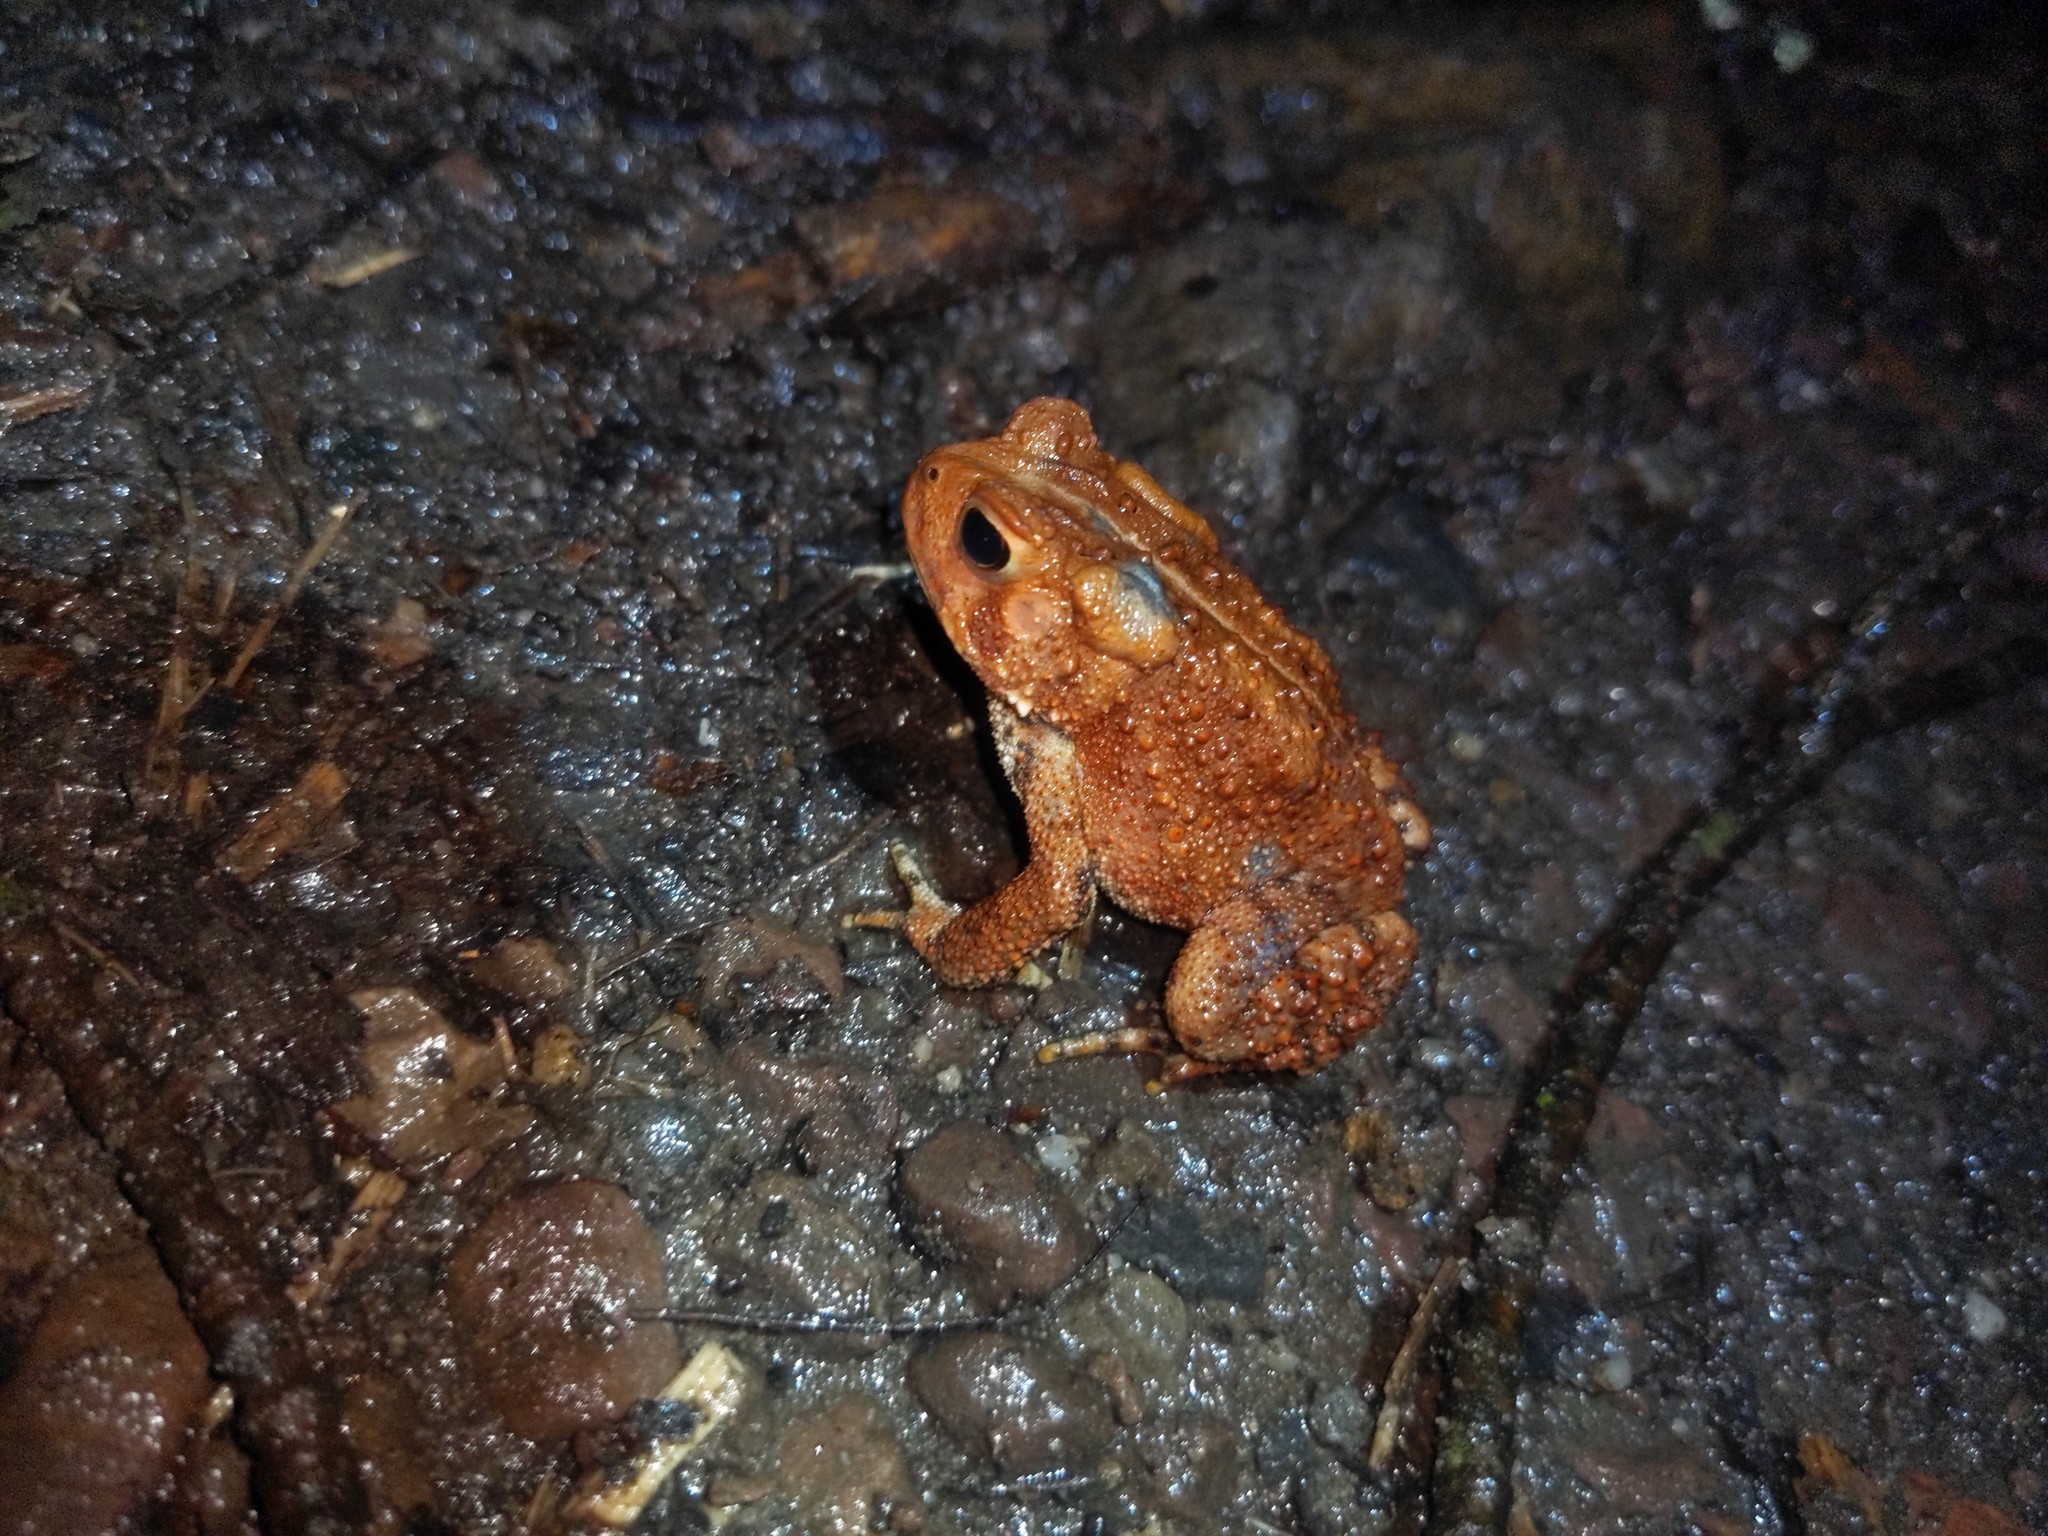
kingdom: Animalia
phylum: Chordata
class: Amphibia
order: Anura
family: Bufonidae
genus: Anaxyrus
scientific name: Anaxyrus americanus
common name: American toad
